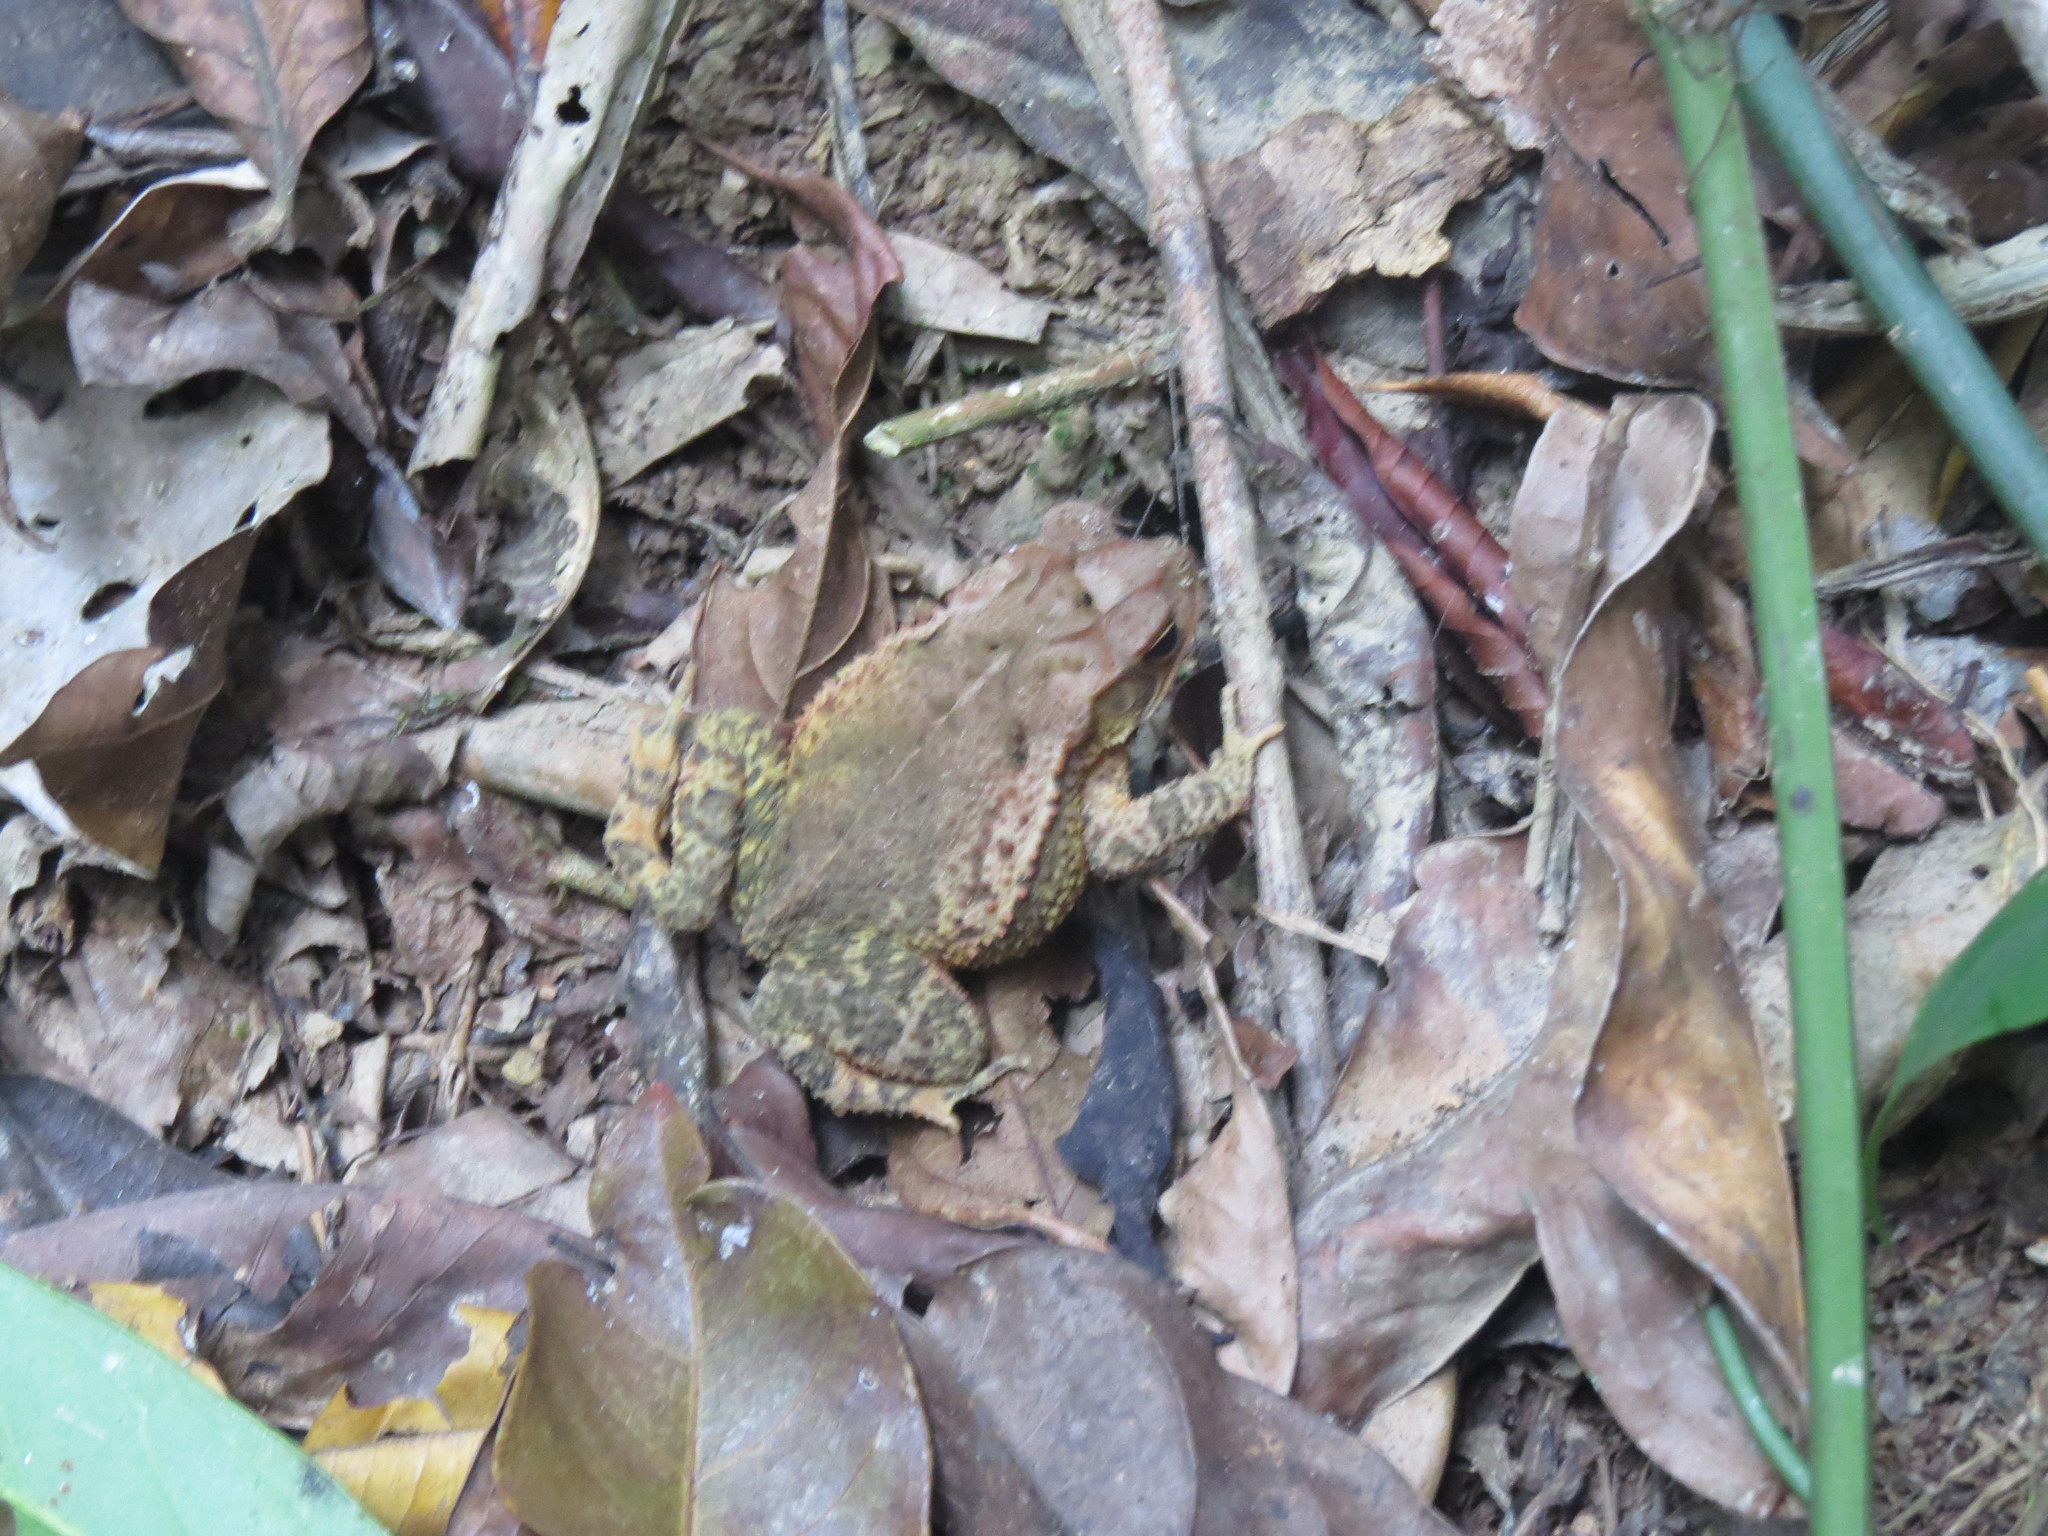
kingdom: Animalia
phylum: Chordata
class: Amphibia
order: Anura
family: Bufonidae
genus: Incilius
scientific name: Incilius valliceps
